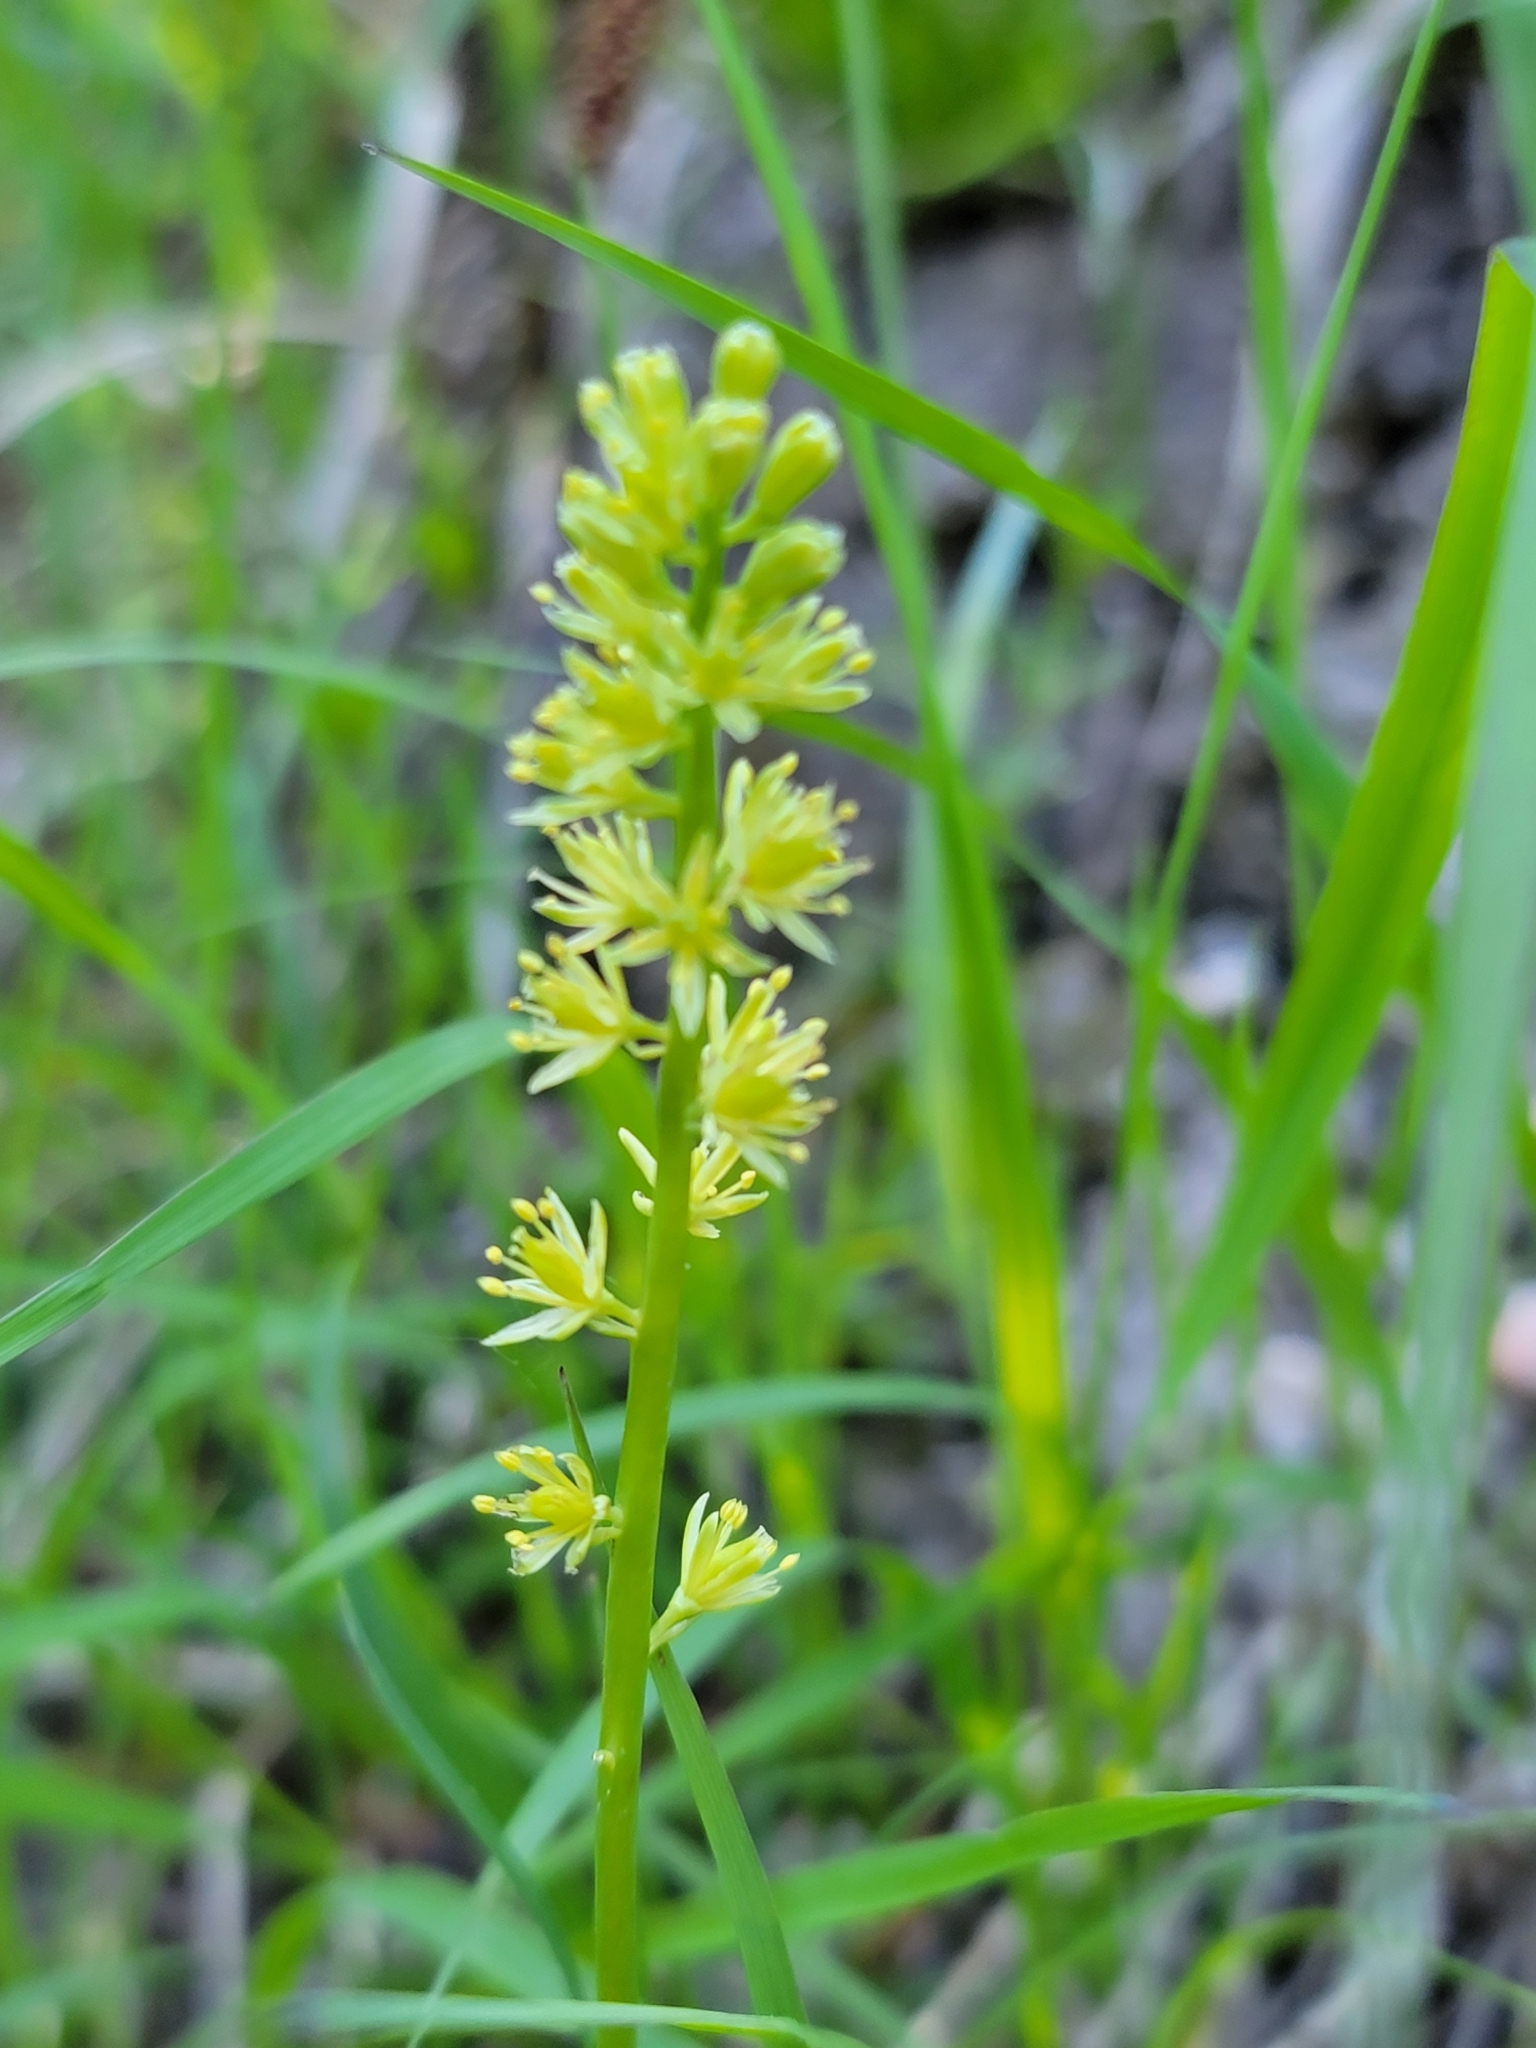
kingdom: Plantae
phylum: Tracheophyta
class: Liliopsida
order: Alismatales
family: Tofieldiaceae
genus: Tofieldia
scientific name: Tofieldia calyculata
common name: German-asphodel
